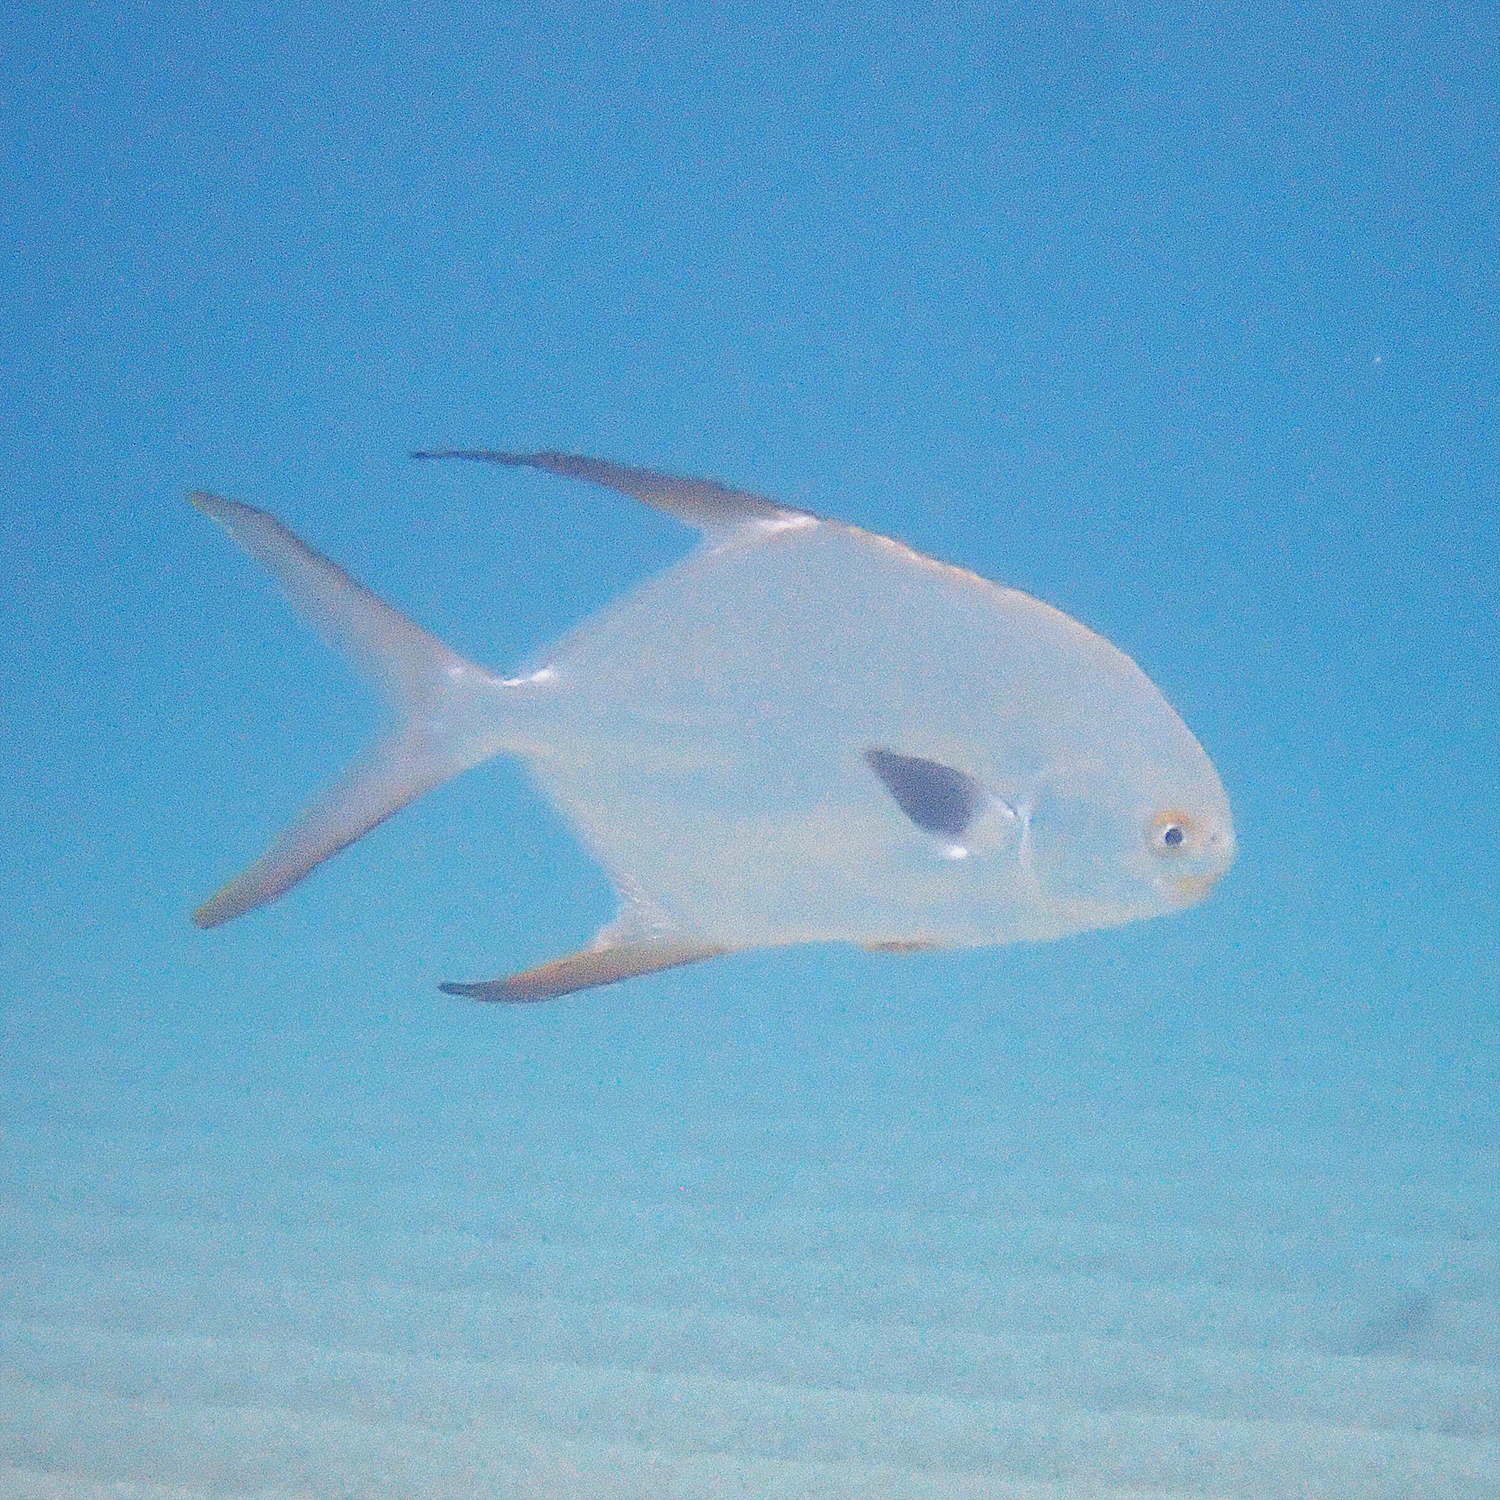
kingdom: Animalia
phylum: Chordata
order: Perciformes
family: Carangidae
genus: Trachinotus
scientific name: Trachinotus blochii
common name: Snubnose pompano
